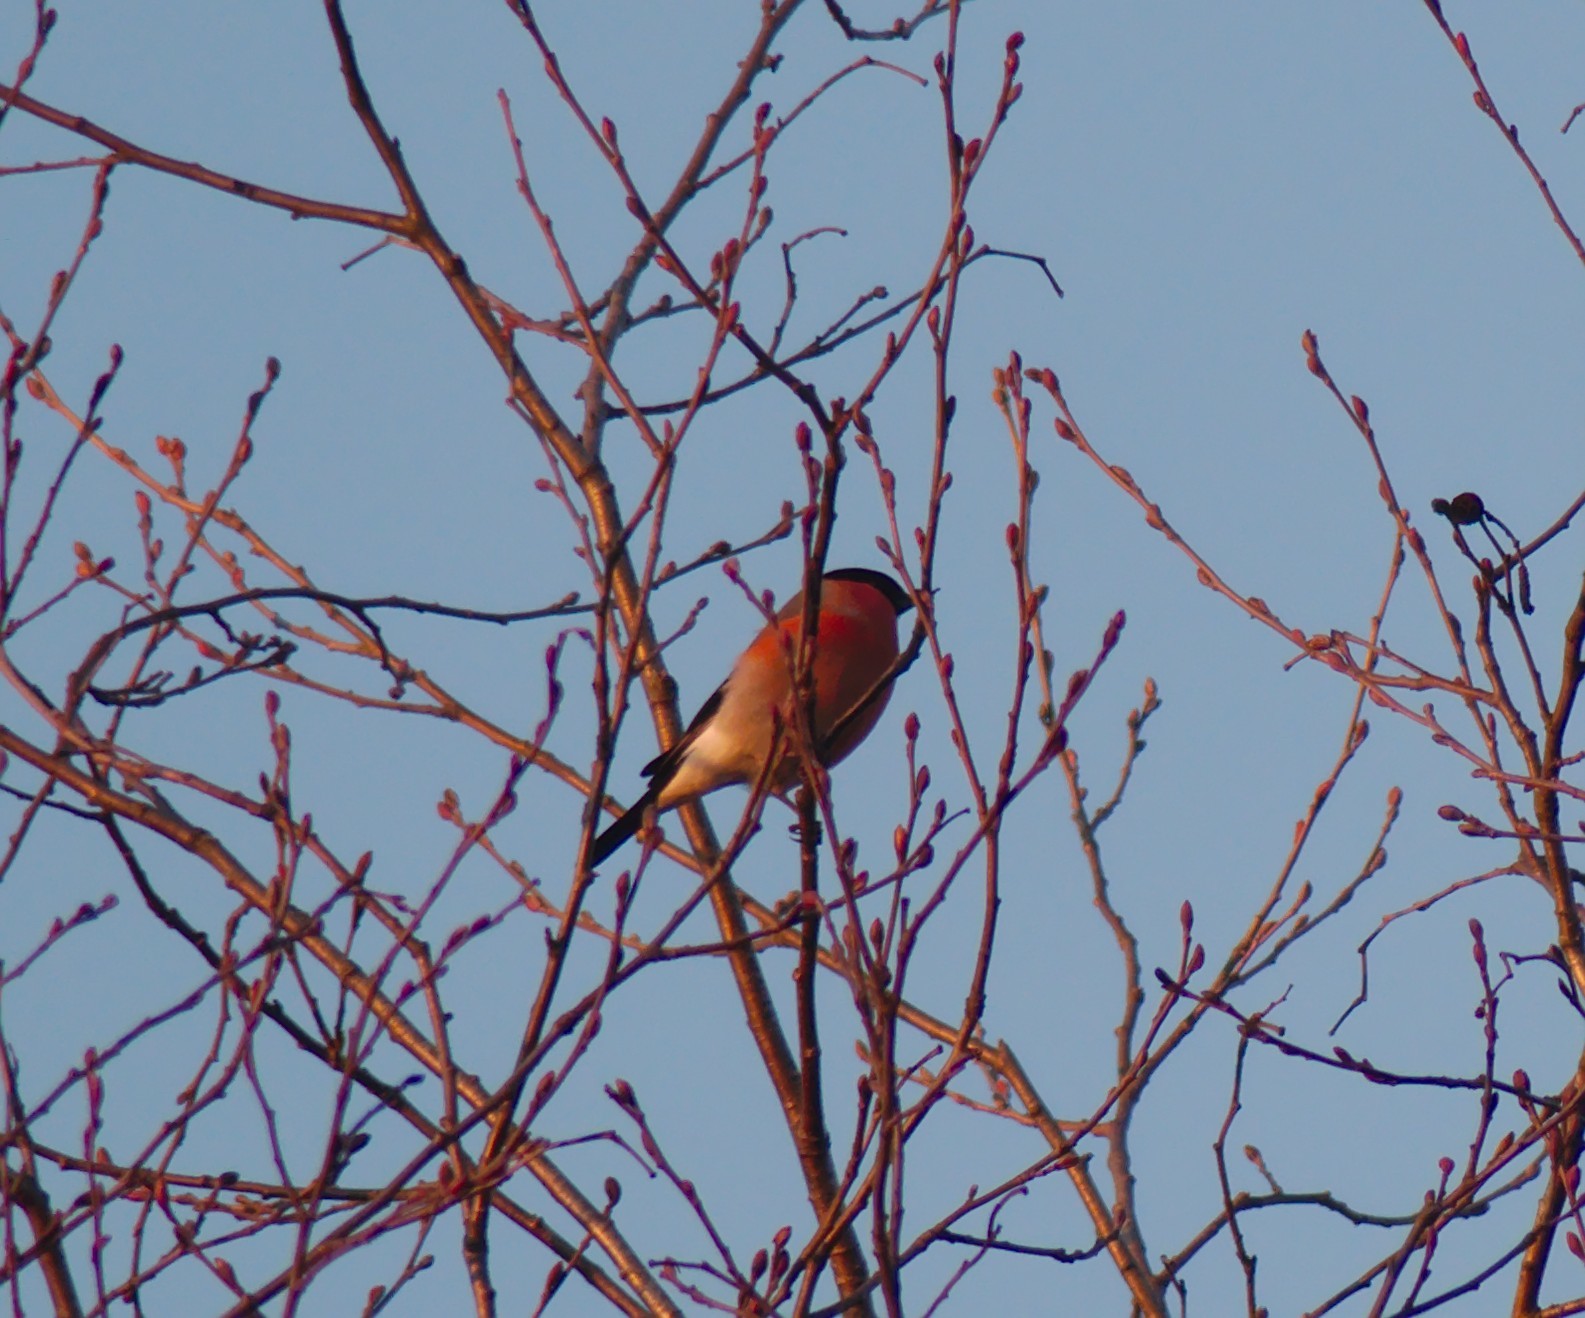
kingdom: Animalia
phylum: Chordata
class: Aves
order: Passeriformes
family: Fringillidae
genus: Pyrrhula
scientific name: Pyrrhula pyrrhula
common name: Eurasian bullfinch
